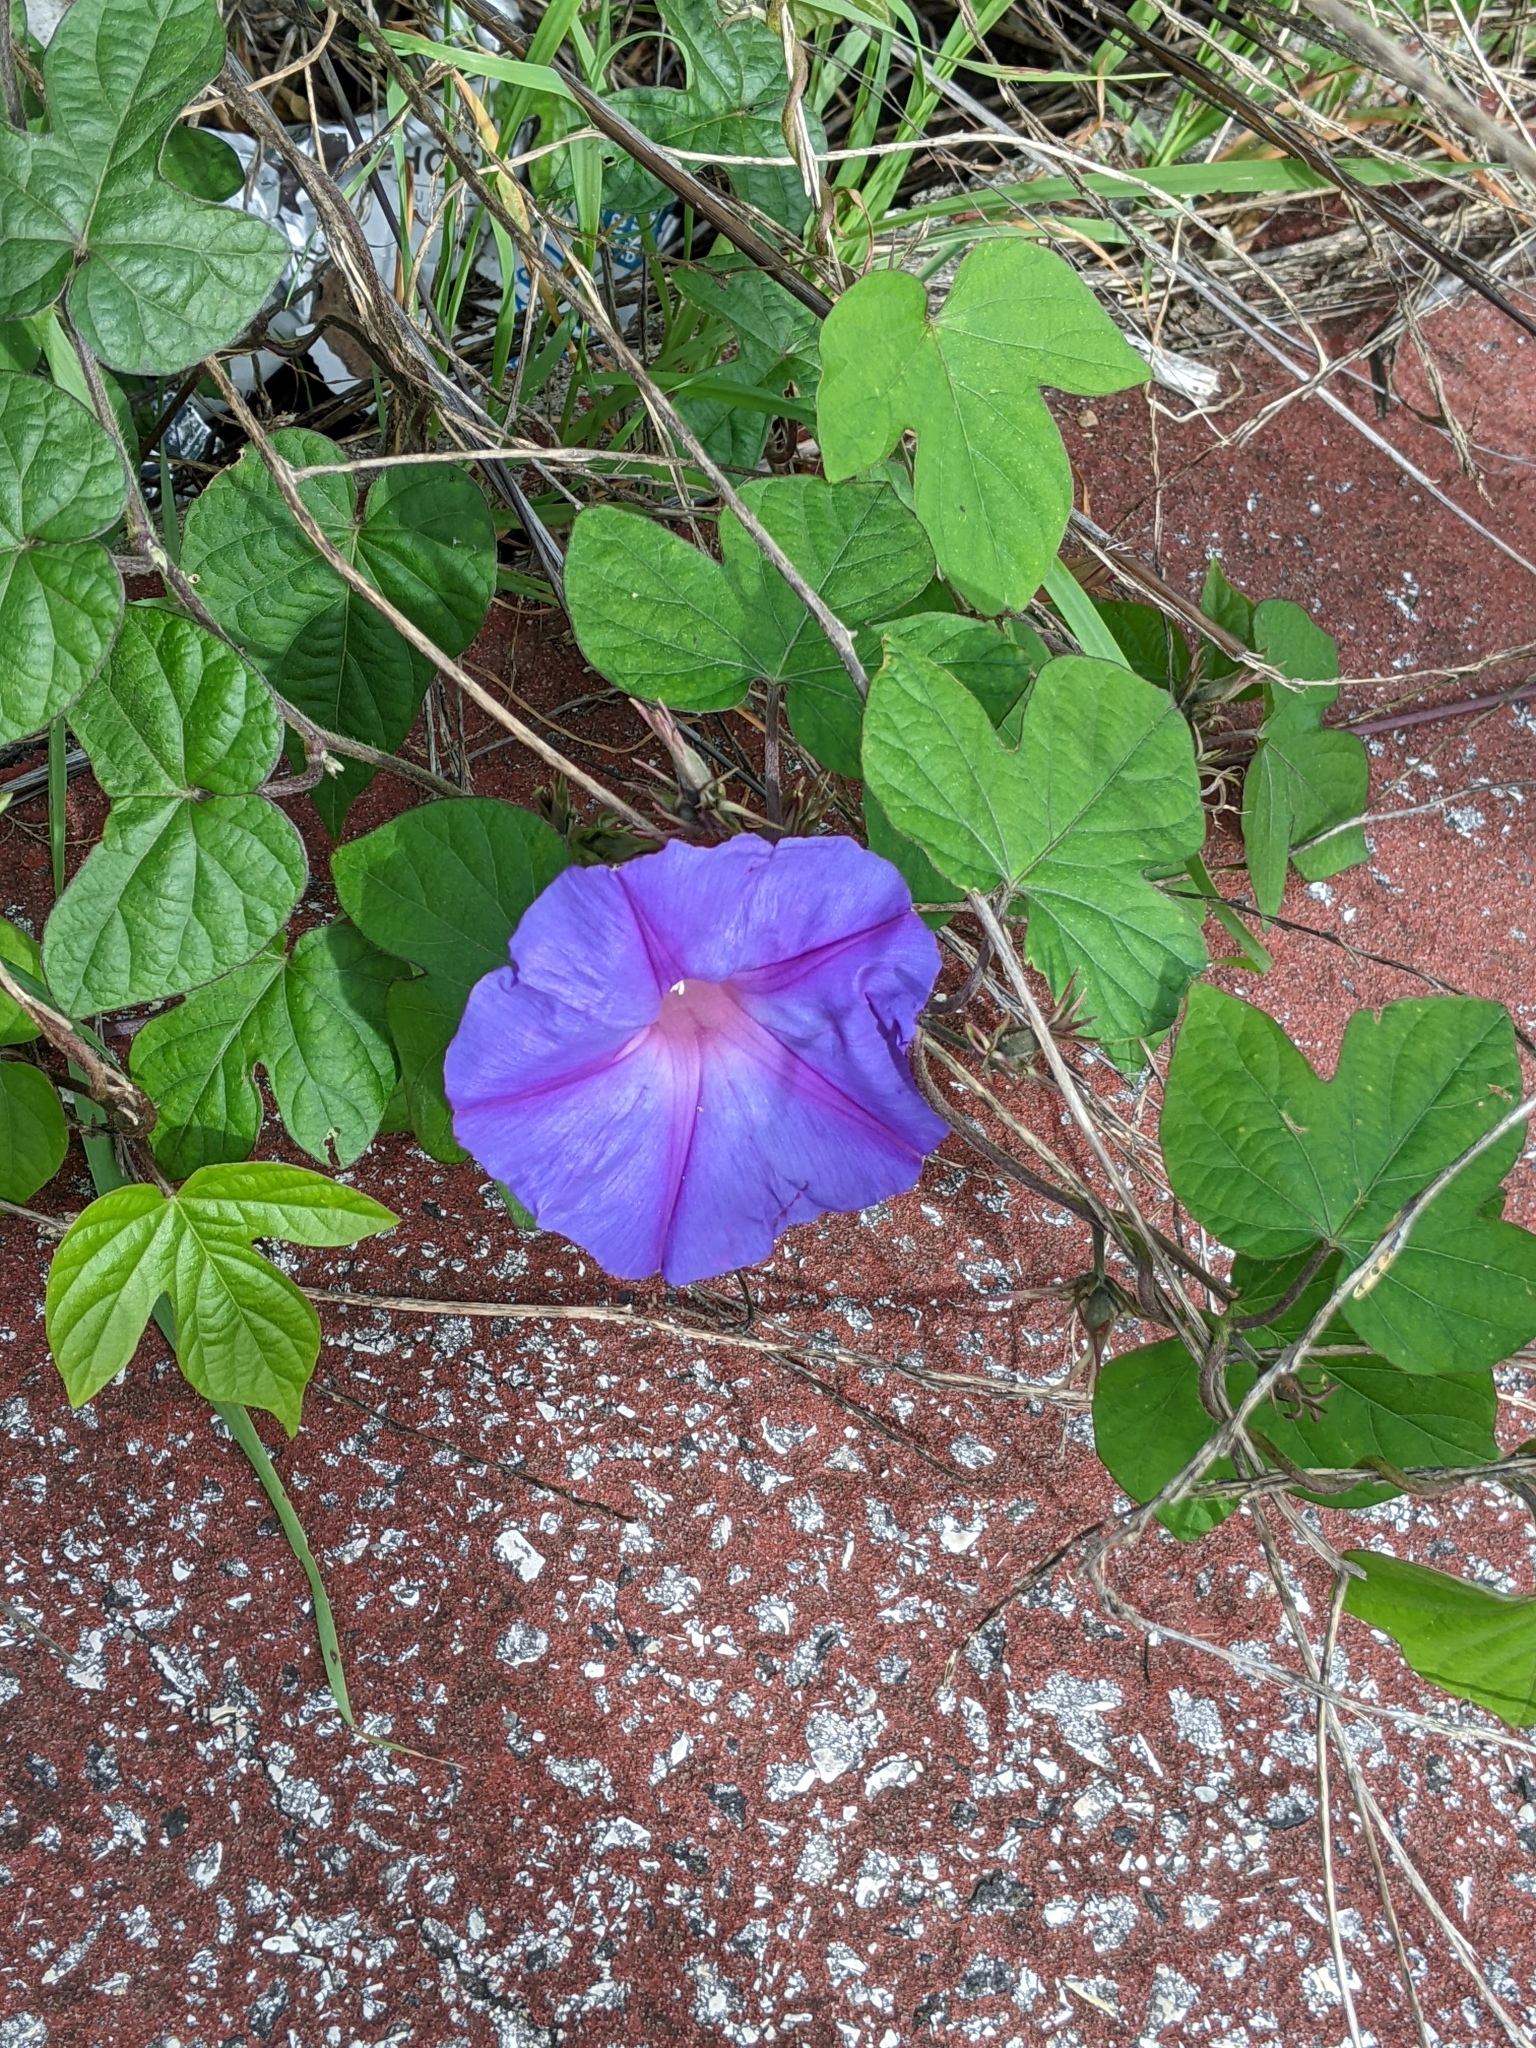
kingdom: Plantae
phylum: Tracheophyta
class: Magnoliopsida
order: Solanales
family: Convolvulaceae
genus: Ipomoea
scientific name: Ipomoea indica
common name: Blue dawnflower
